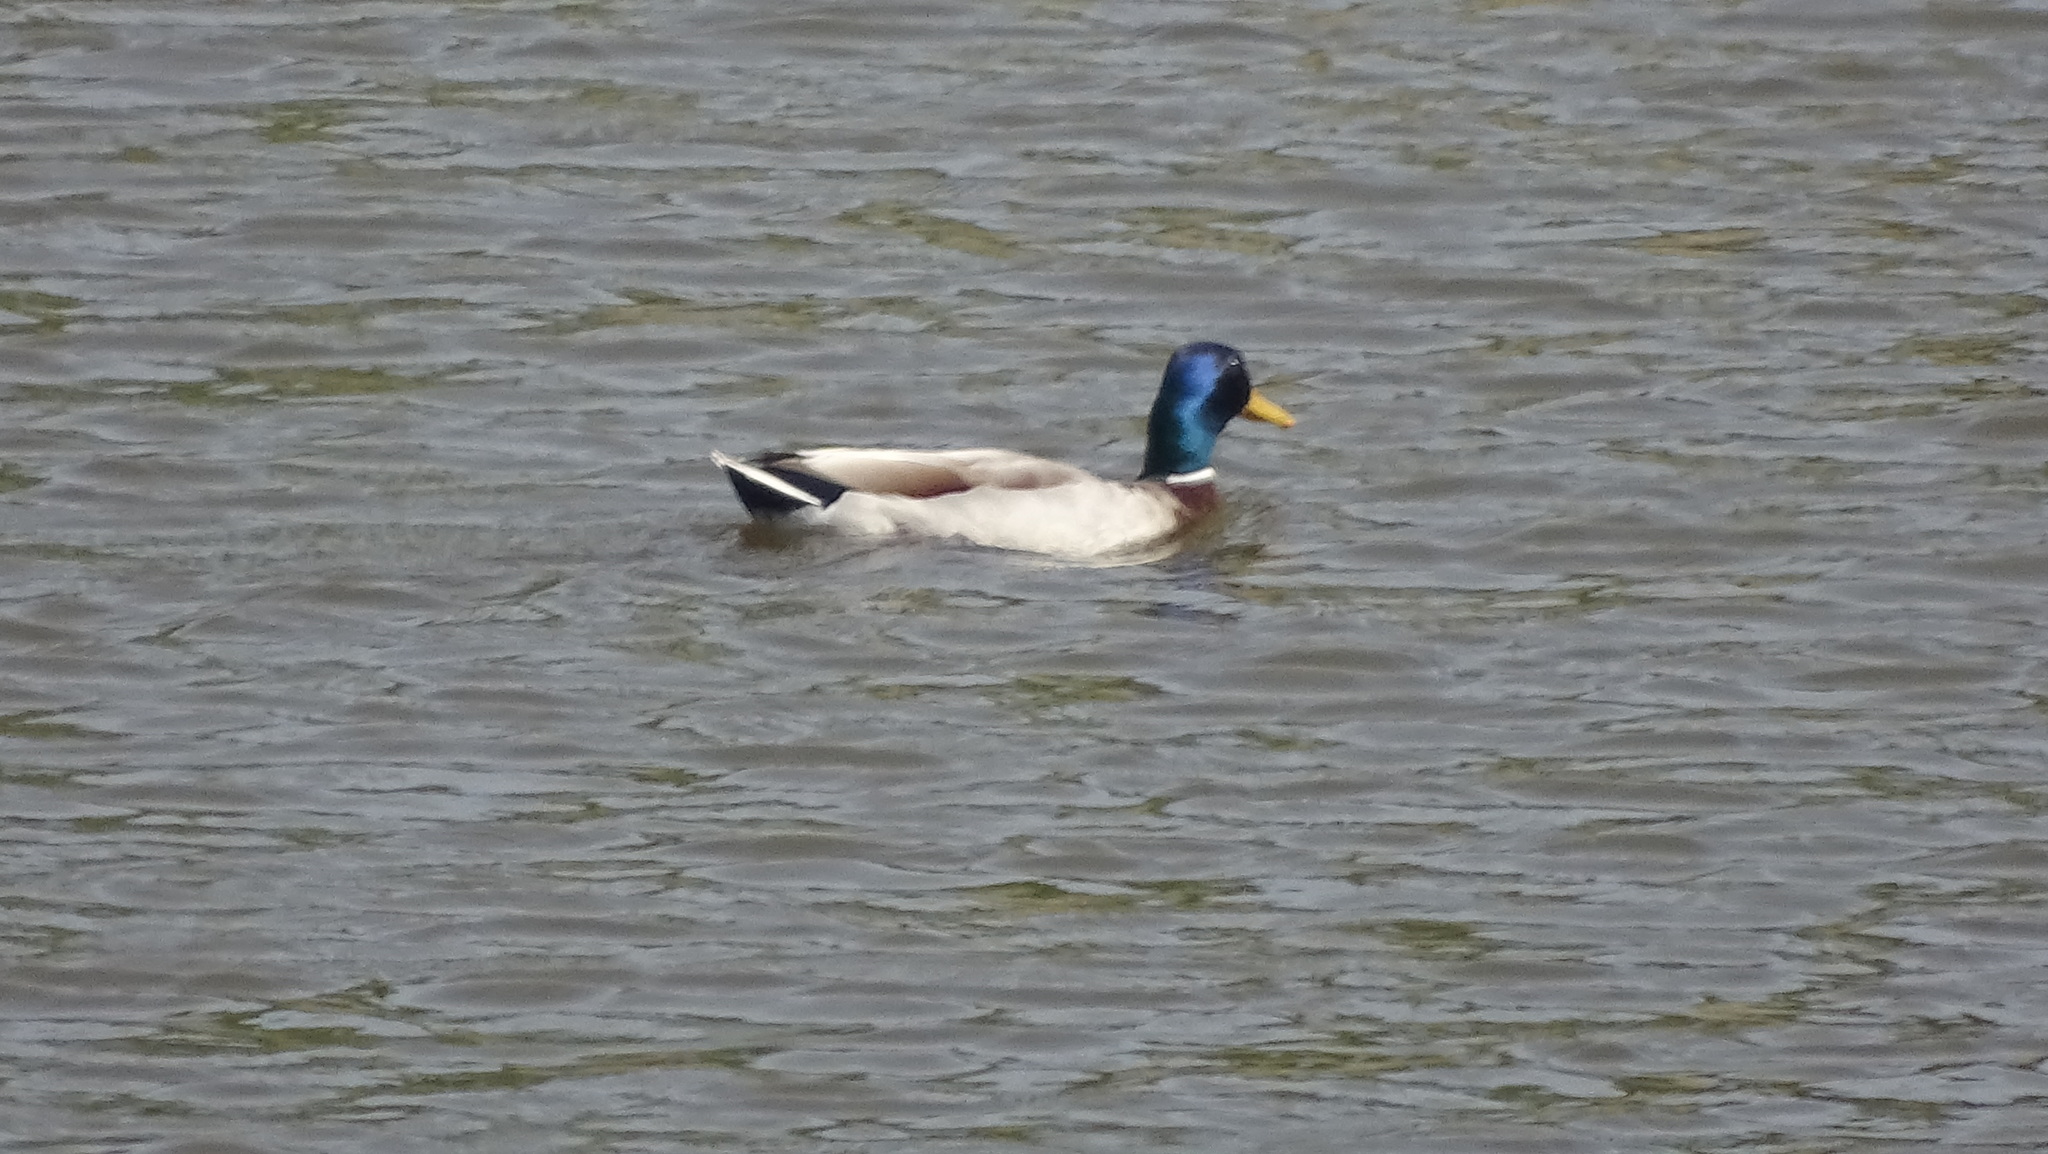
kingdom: Animalia
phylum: Chordata
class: Aves
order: Anseriformes
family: Anatidae
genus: Anas
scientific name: Anas platyrhynchos
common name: Mallard
